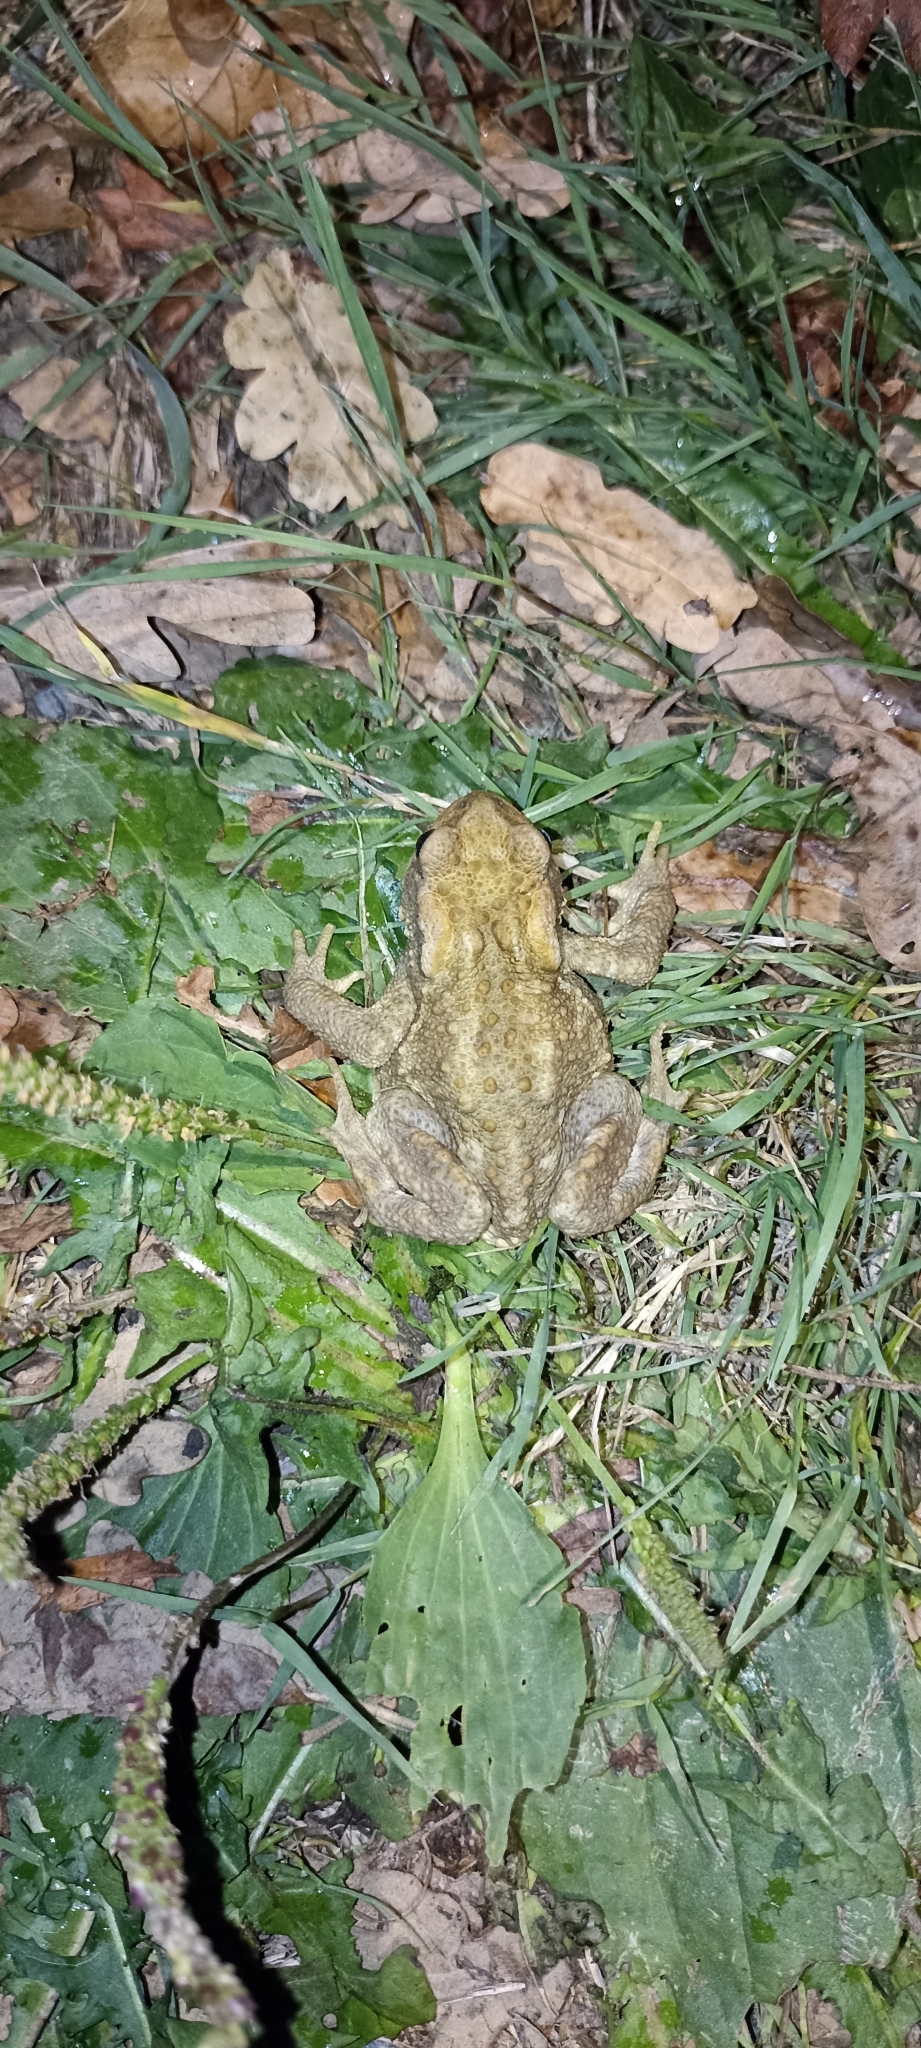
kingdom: Animalia
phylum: Chordata
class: Amphibia
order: Anura
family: Bufonidae
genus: Bufo
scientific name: Bufo spinosus
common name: Western common toad
